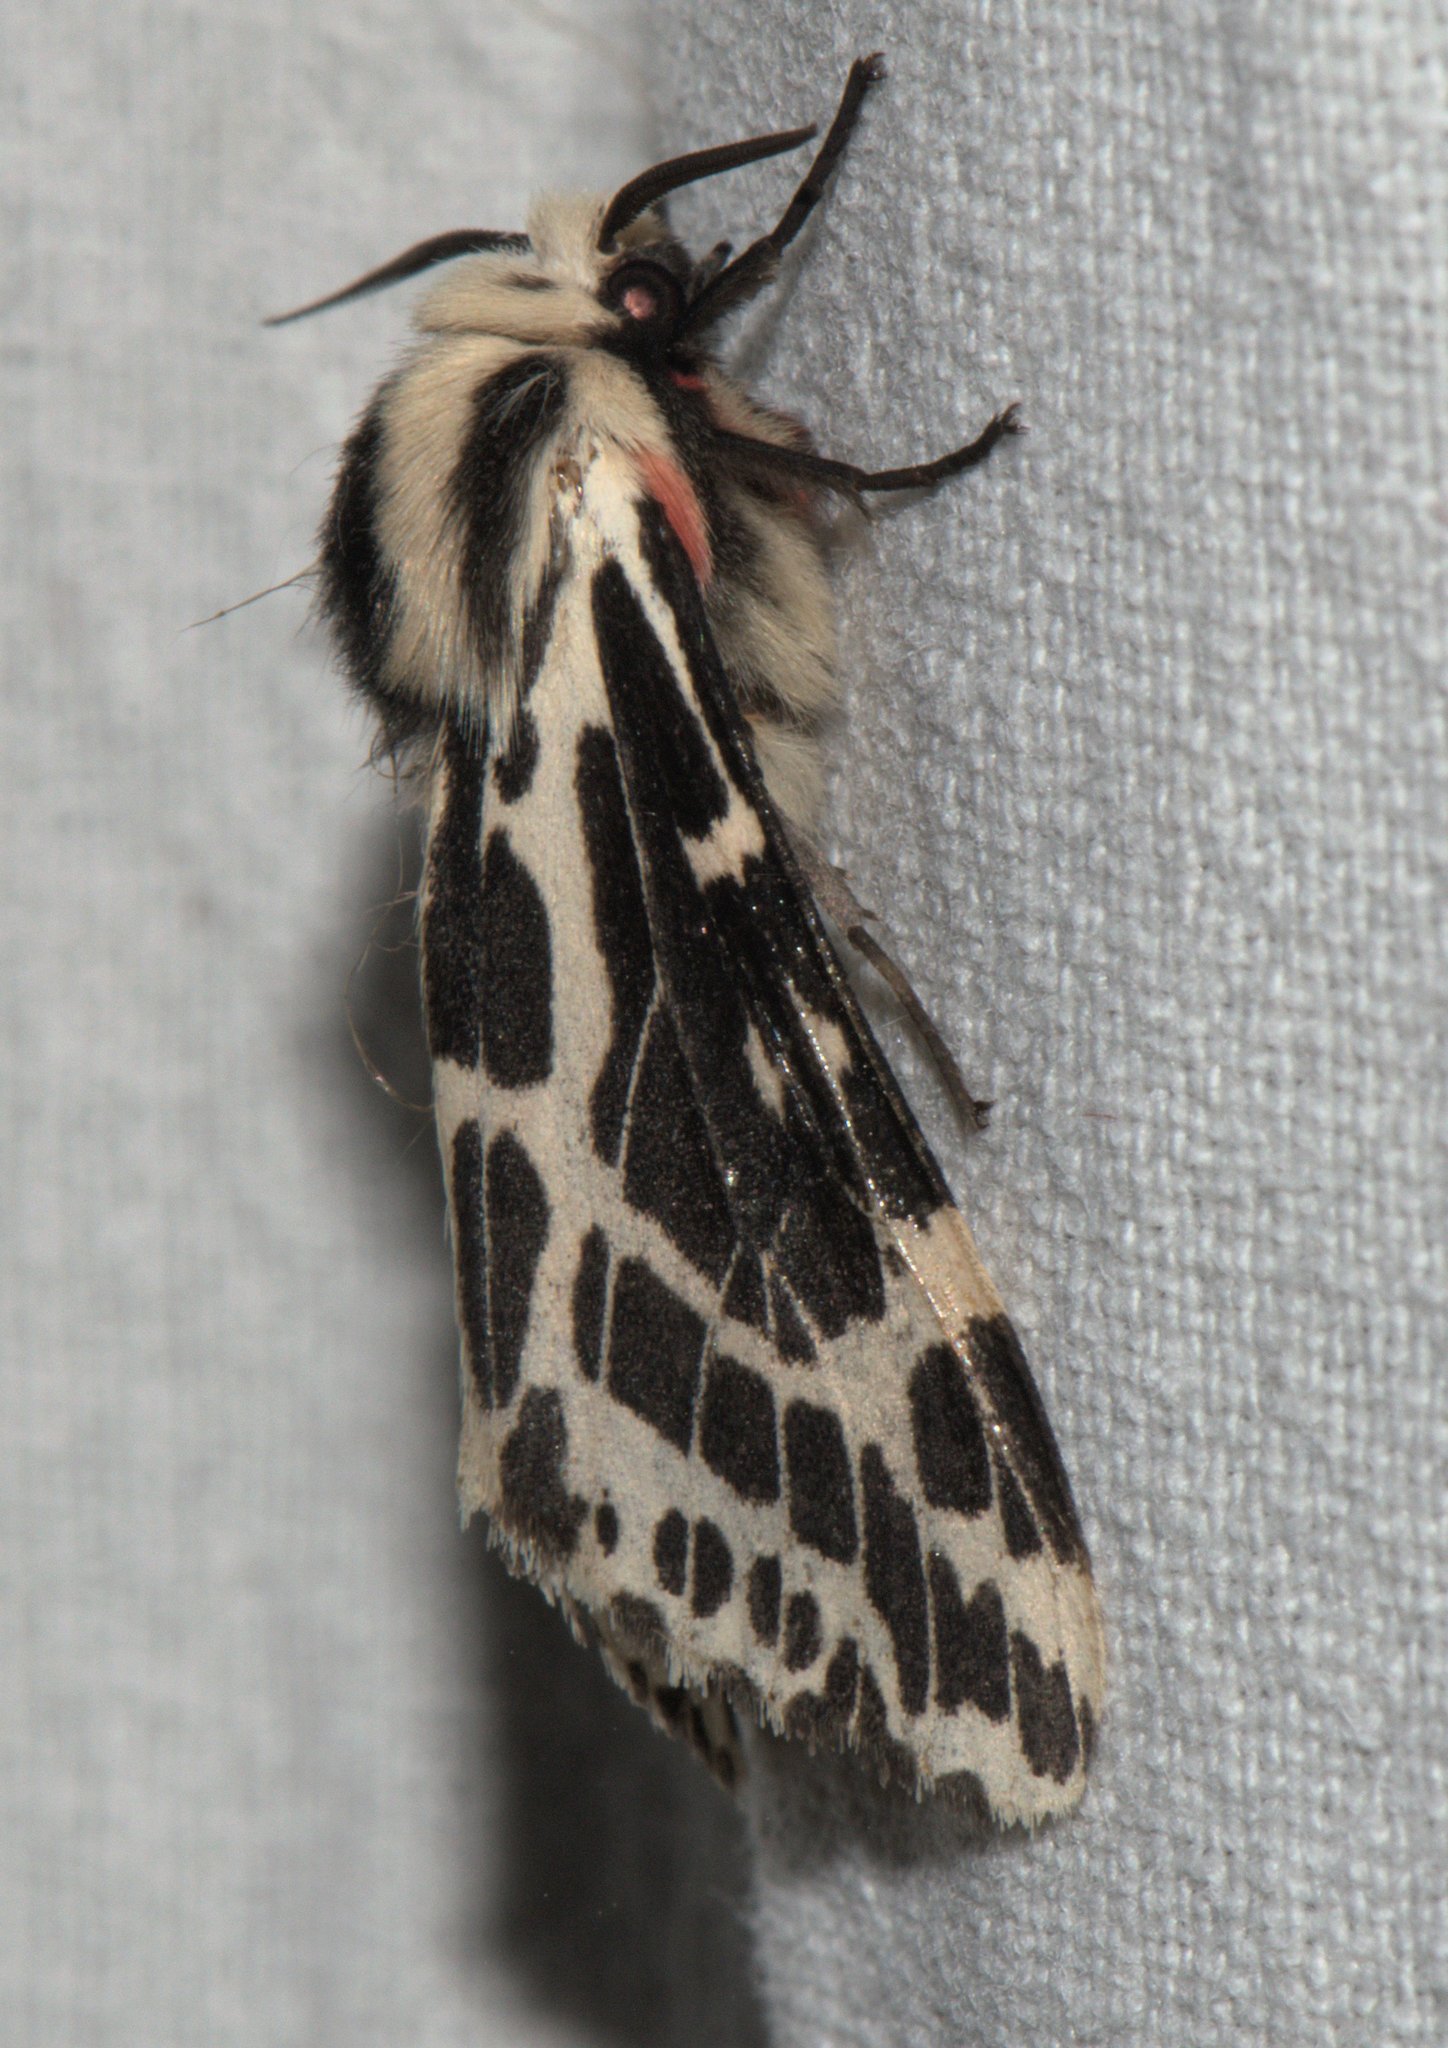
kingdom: Animalia
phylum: Arthropoda
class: Insecta
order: Lepidoptera
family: Erebidae
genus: Spilarctia
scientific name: Spilarctia leopardina
